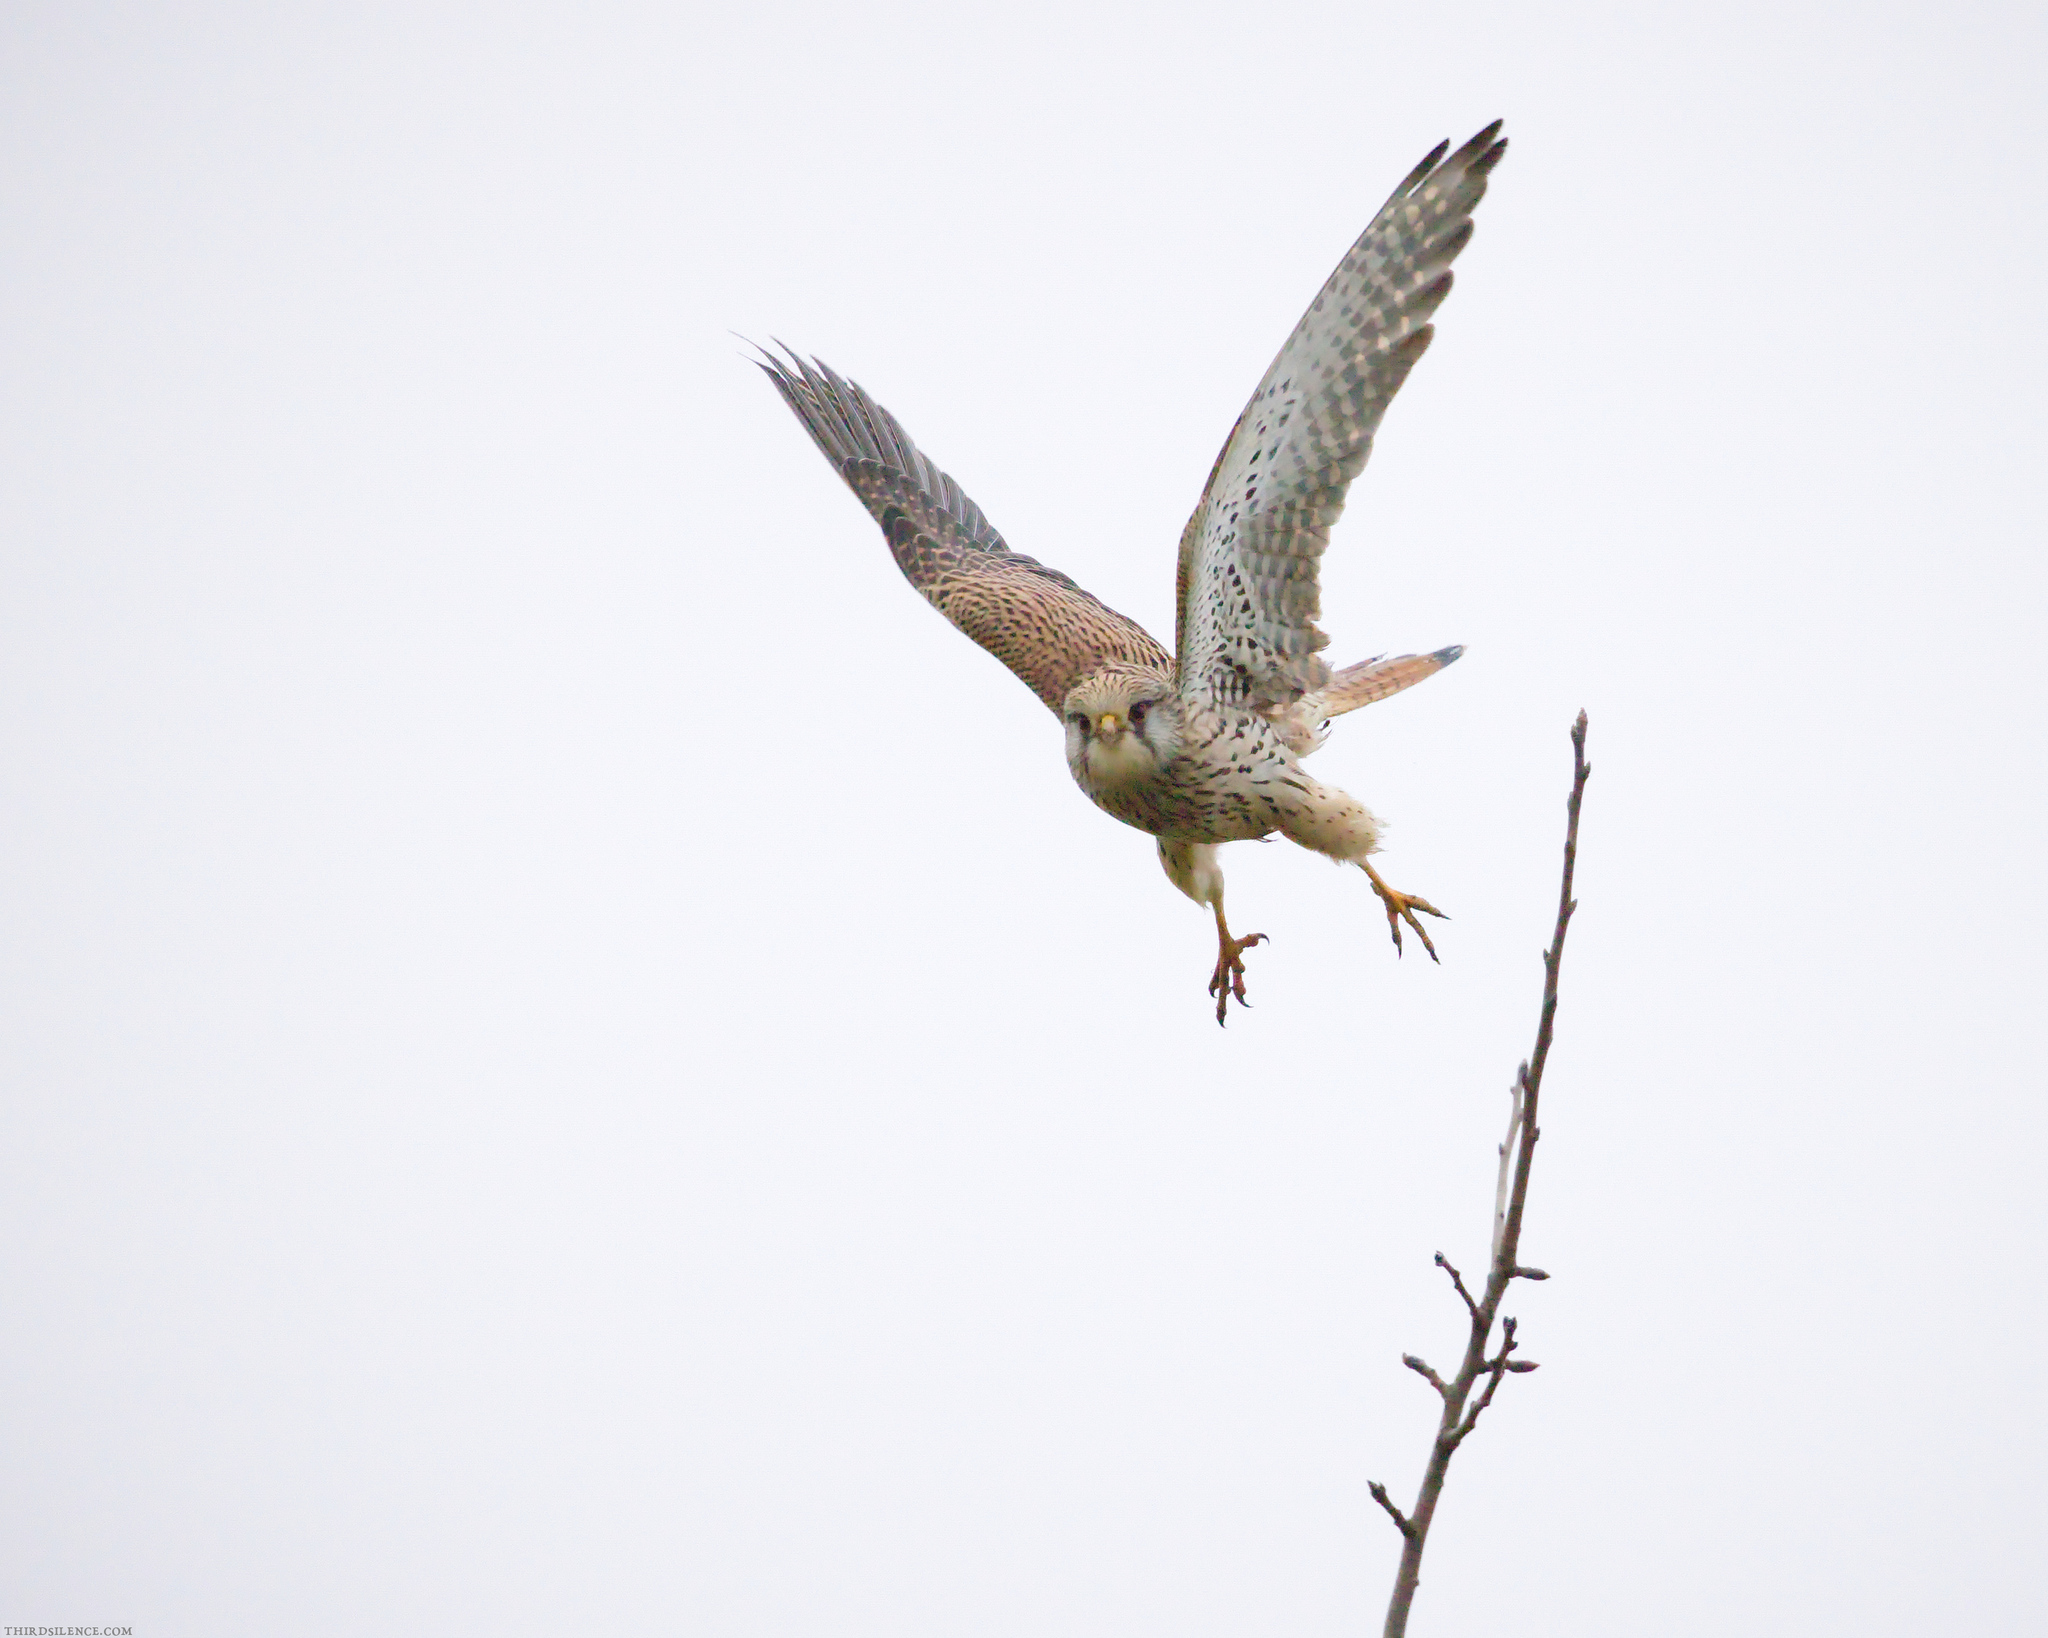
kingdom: Animalia
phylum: Chordata
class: Aves
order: Falconiformes
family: Falconidae
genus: Falco
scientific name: Falco tinnunculus
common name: Common kestrel
